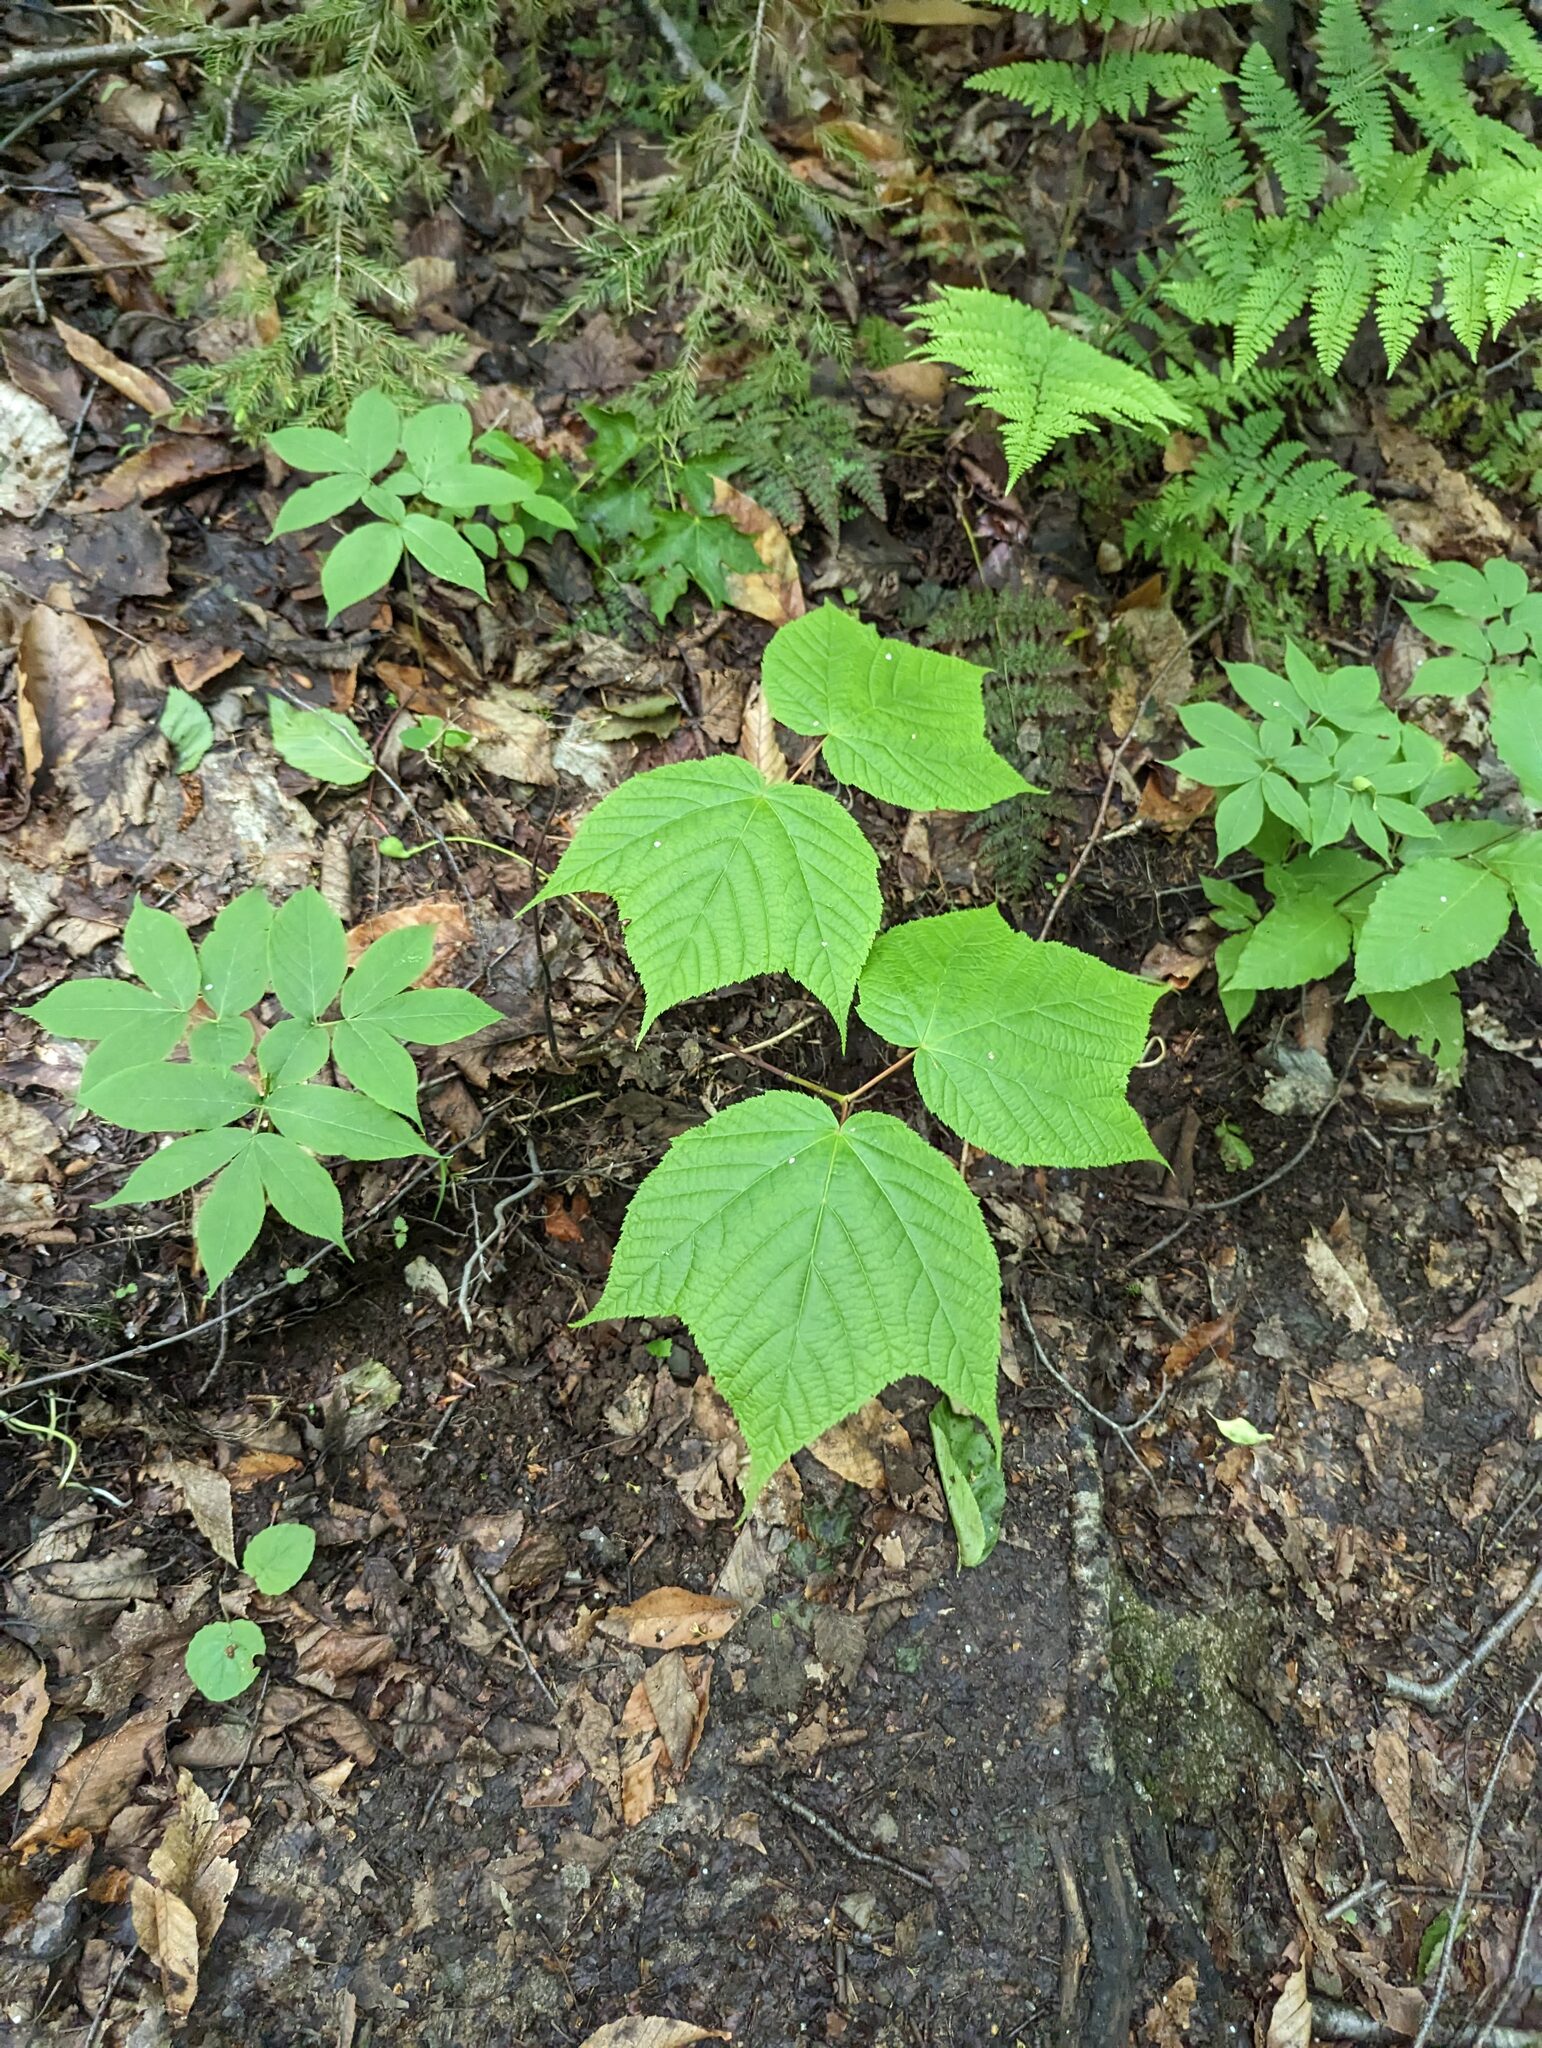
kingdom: Plantae
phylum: Tracheophyta
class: Magnoliopsida
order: Sapindales
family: Sapindaceae
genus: Acer
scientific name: Acer pensylvanicum
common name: Moosewood
